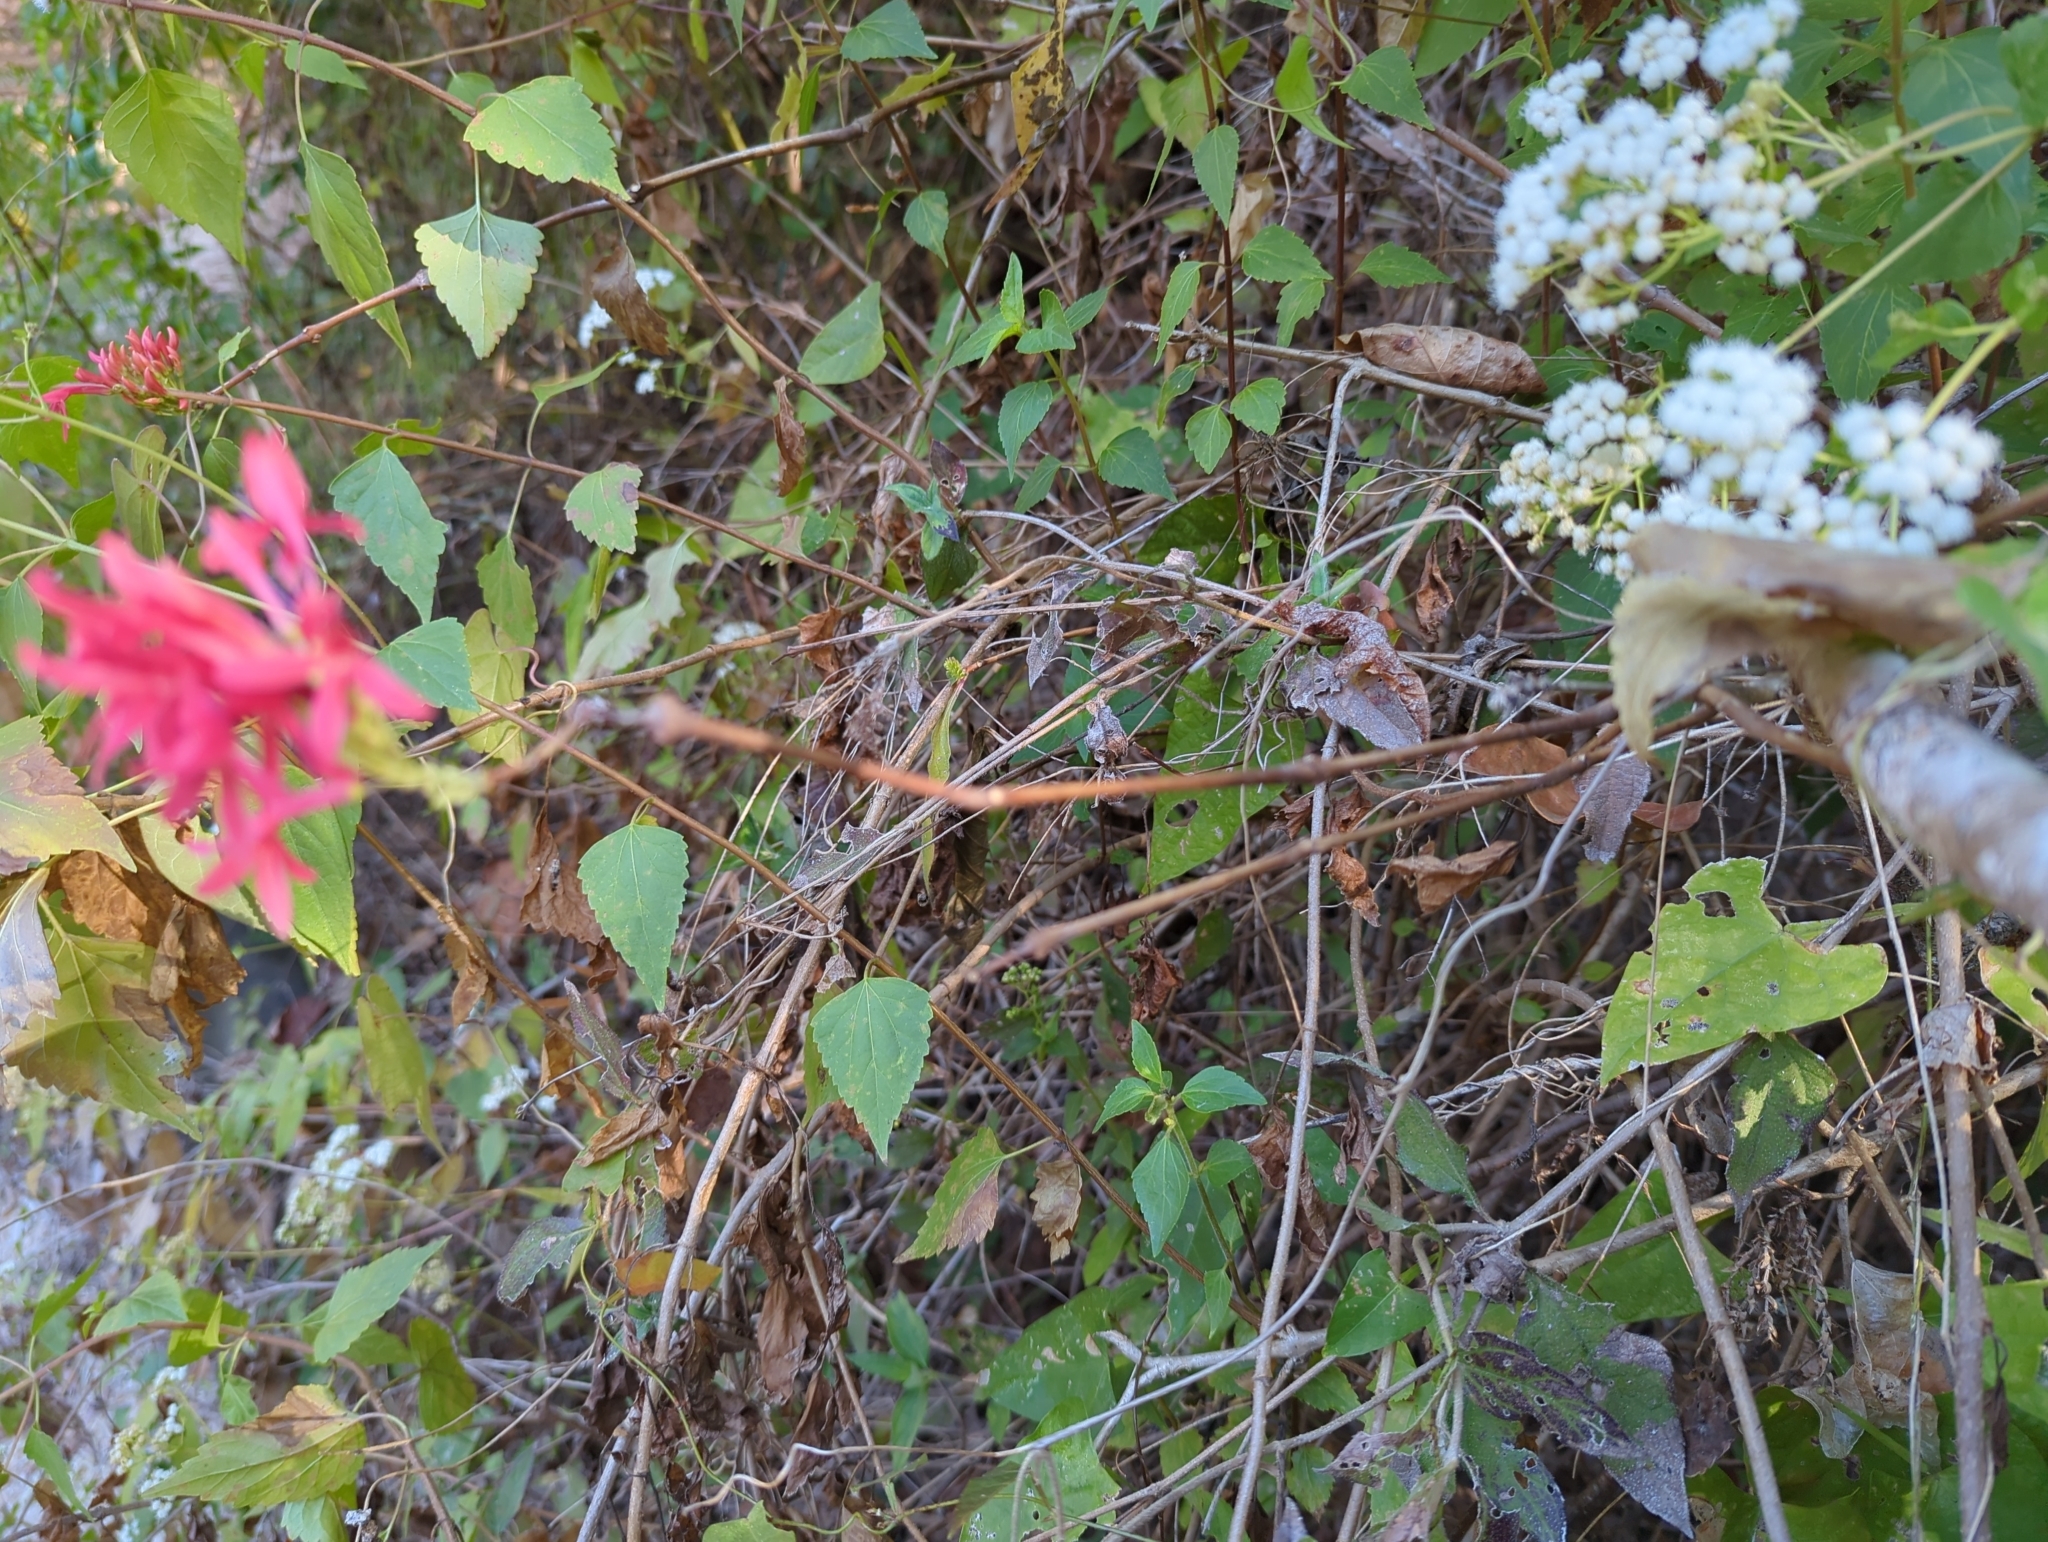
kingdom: Plantae
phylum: Tracheophyta
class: Magnoliopsida
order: Lamiales
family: Acanthaceae
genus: Odontonema
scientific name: Odontonema glaberrimum
